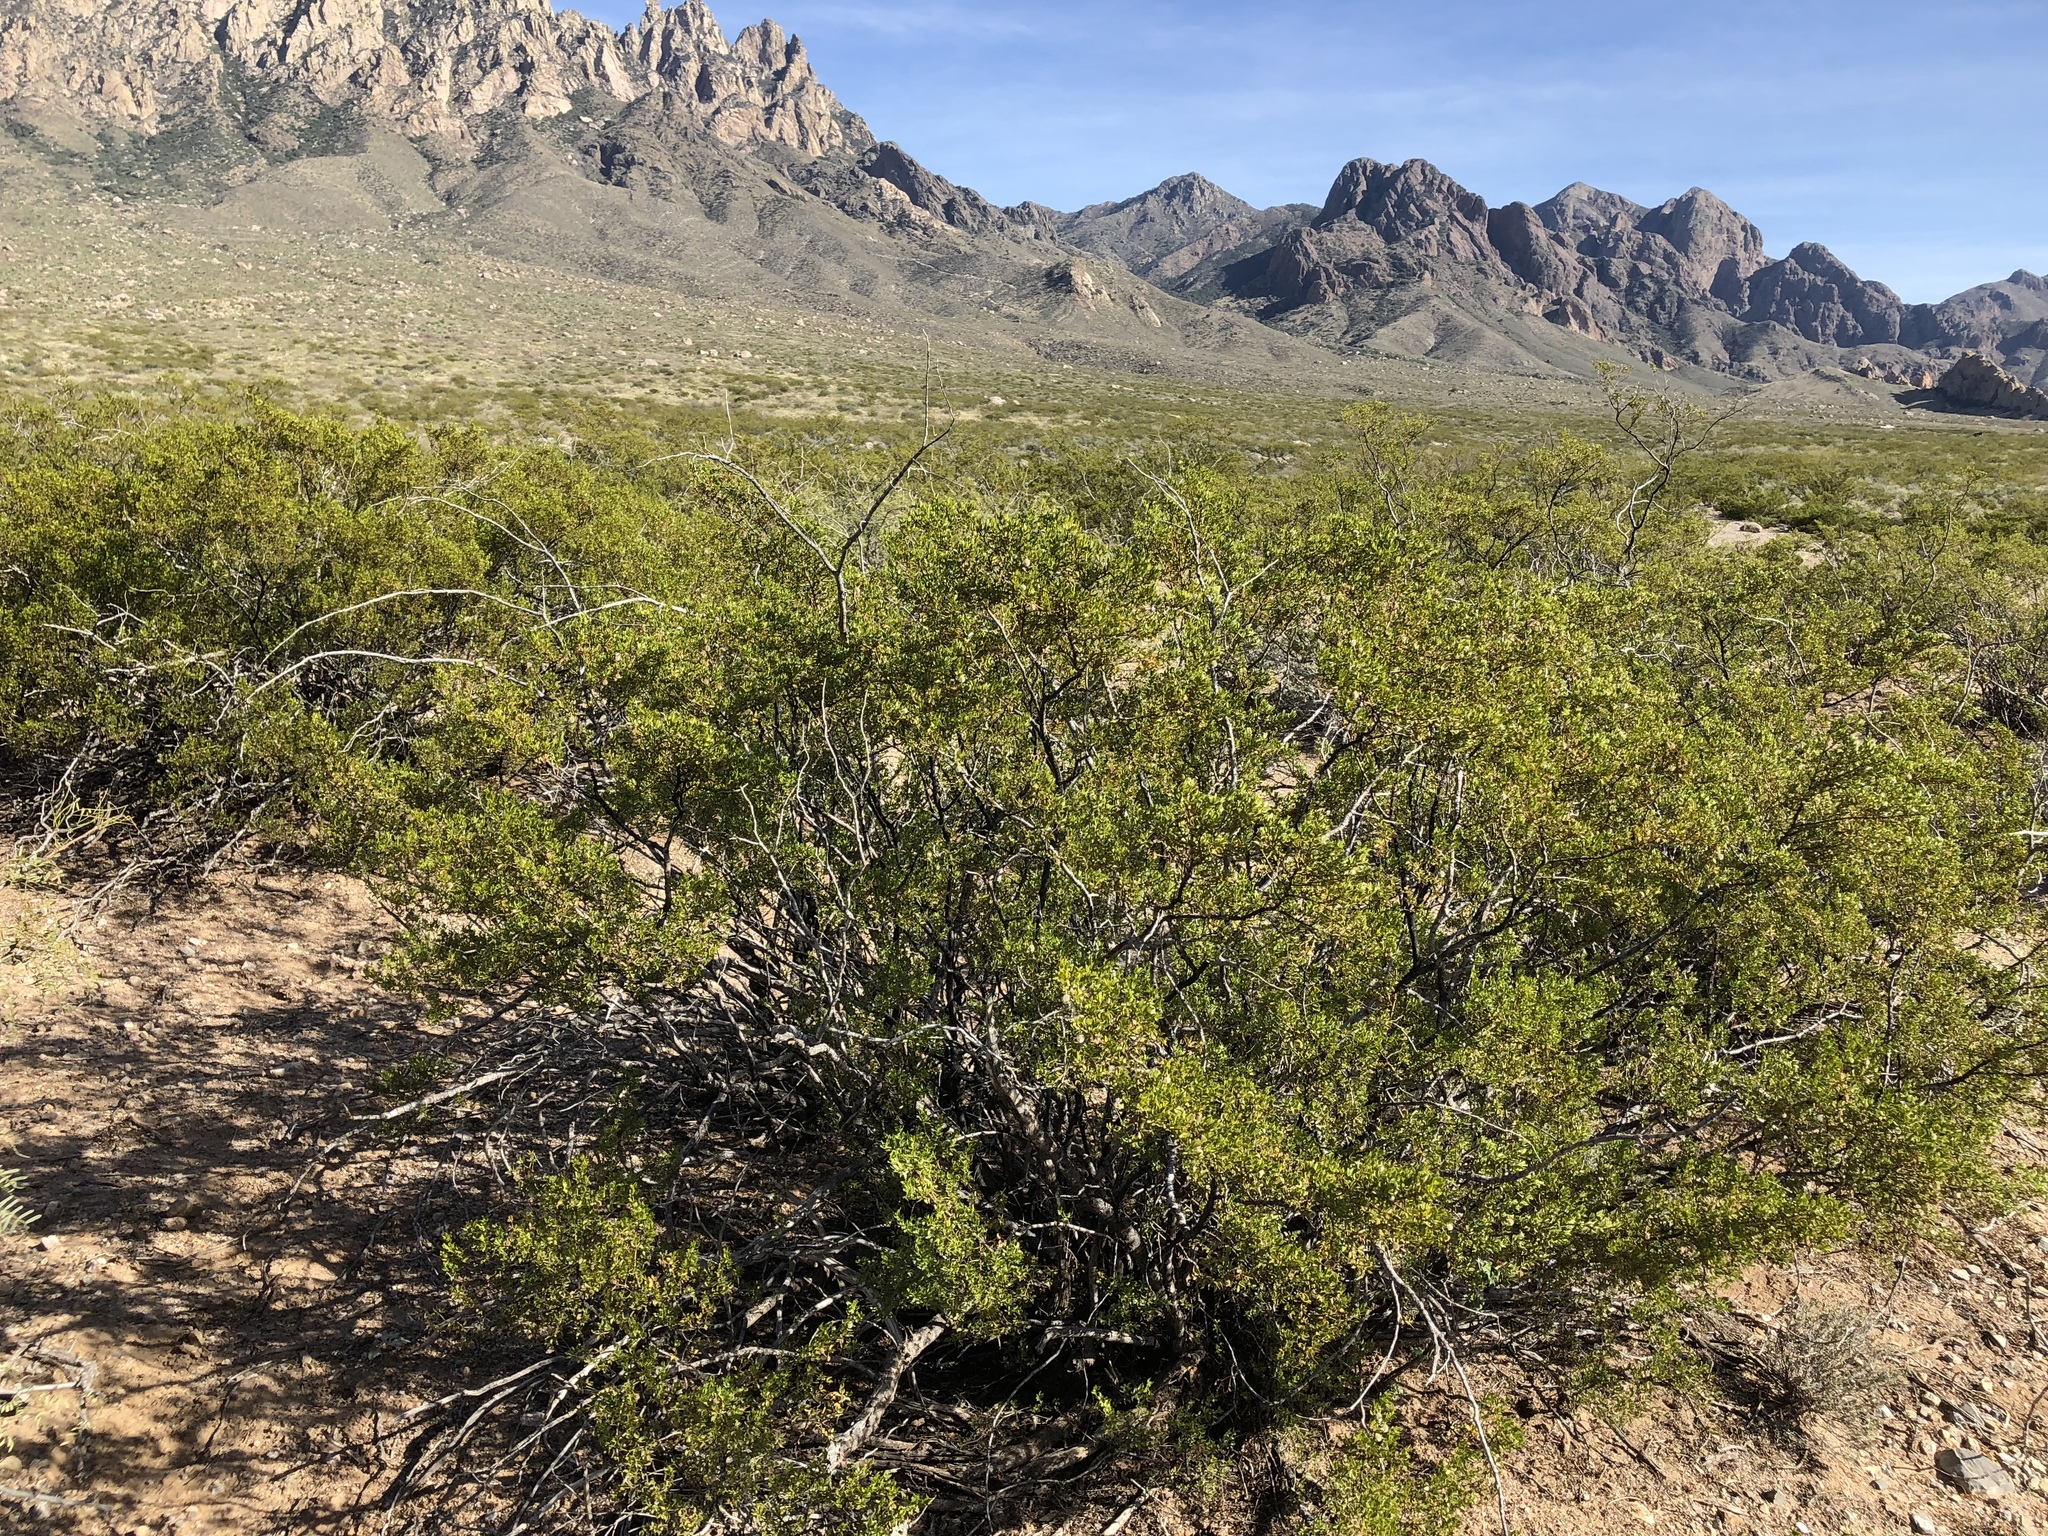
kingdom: Plantae
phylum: Tracheophyta
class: Magnoliopsida
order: Zygophyllales
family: Zygophyllaceae
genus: Larrea
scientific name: Larrea tridentata
